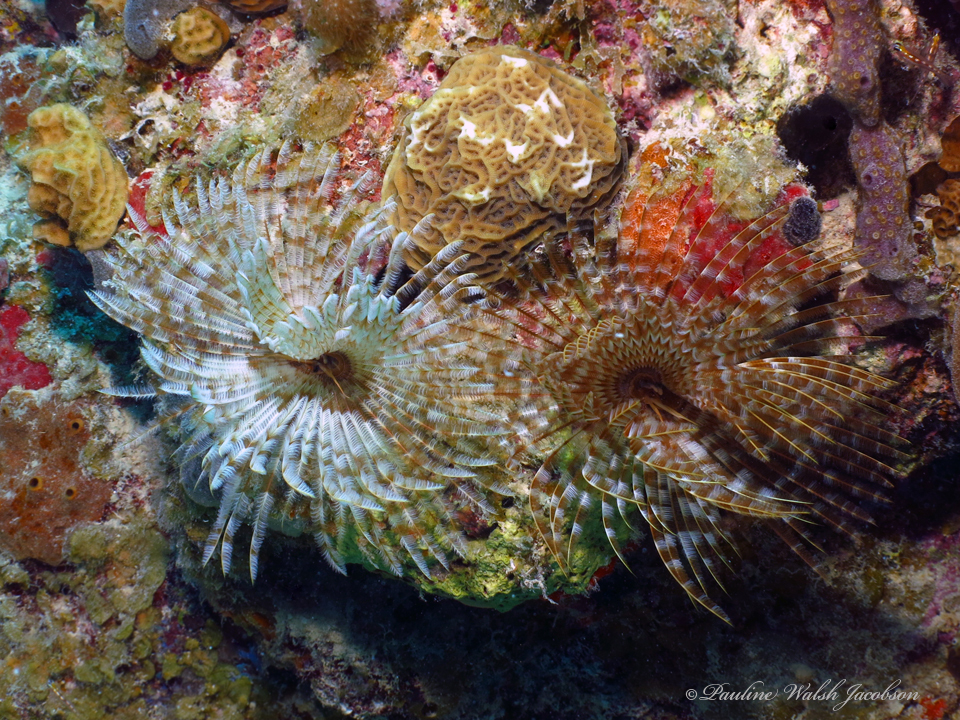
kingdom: Animalia
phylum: Annelida
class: Polychaeta
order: Sabellida
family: Sabellidae
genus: Sabellastarte
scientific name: Sabellastarte magnifica
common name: Giant feather-duster worm
